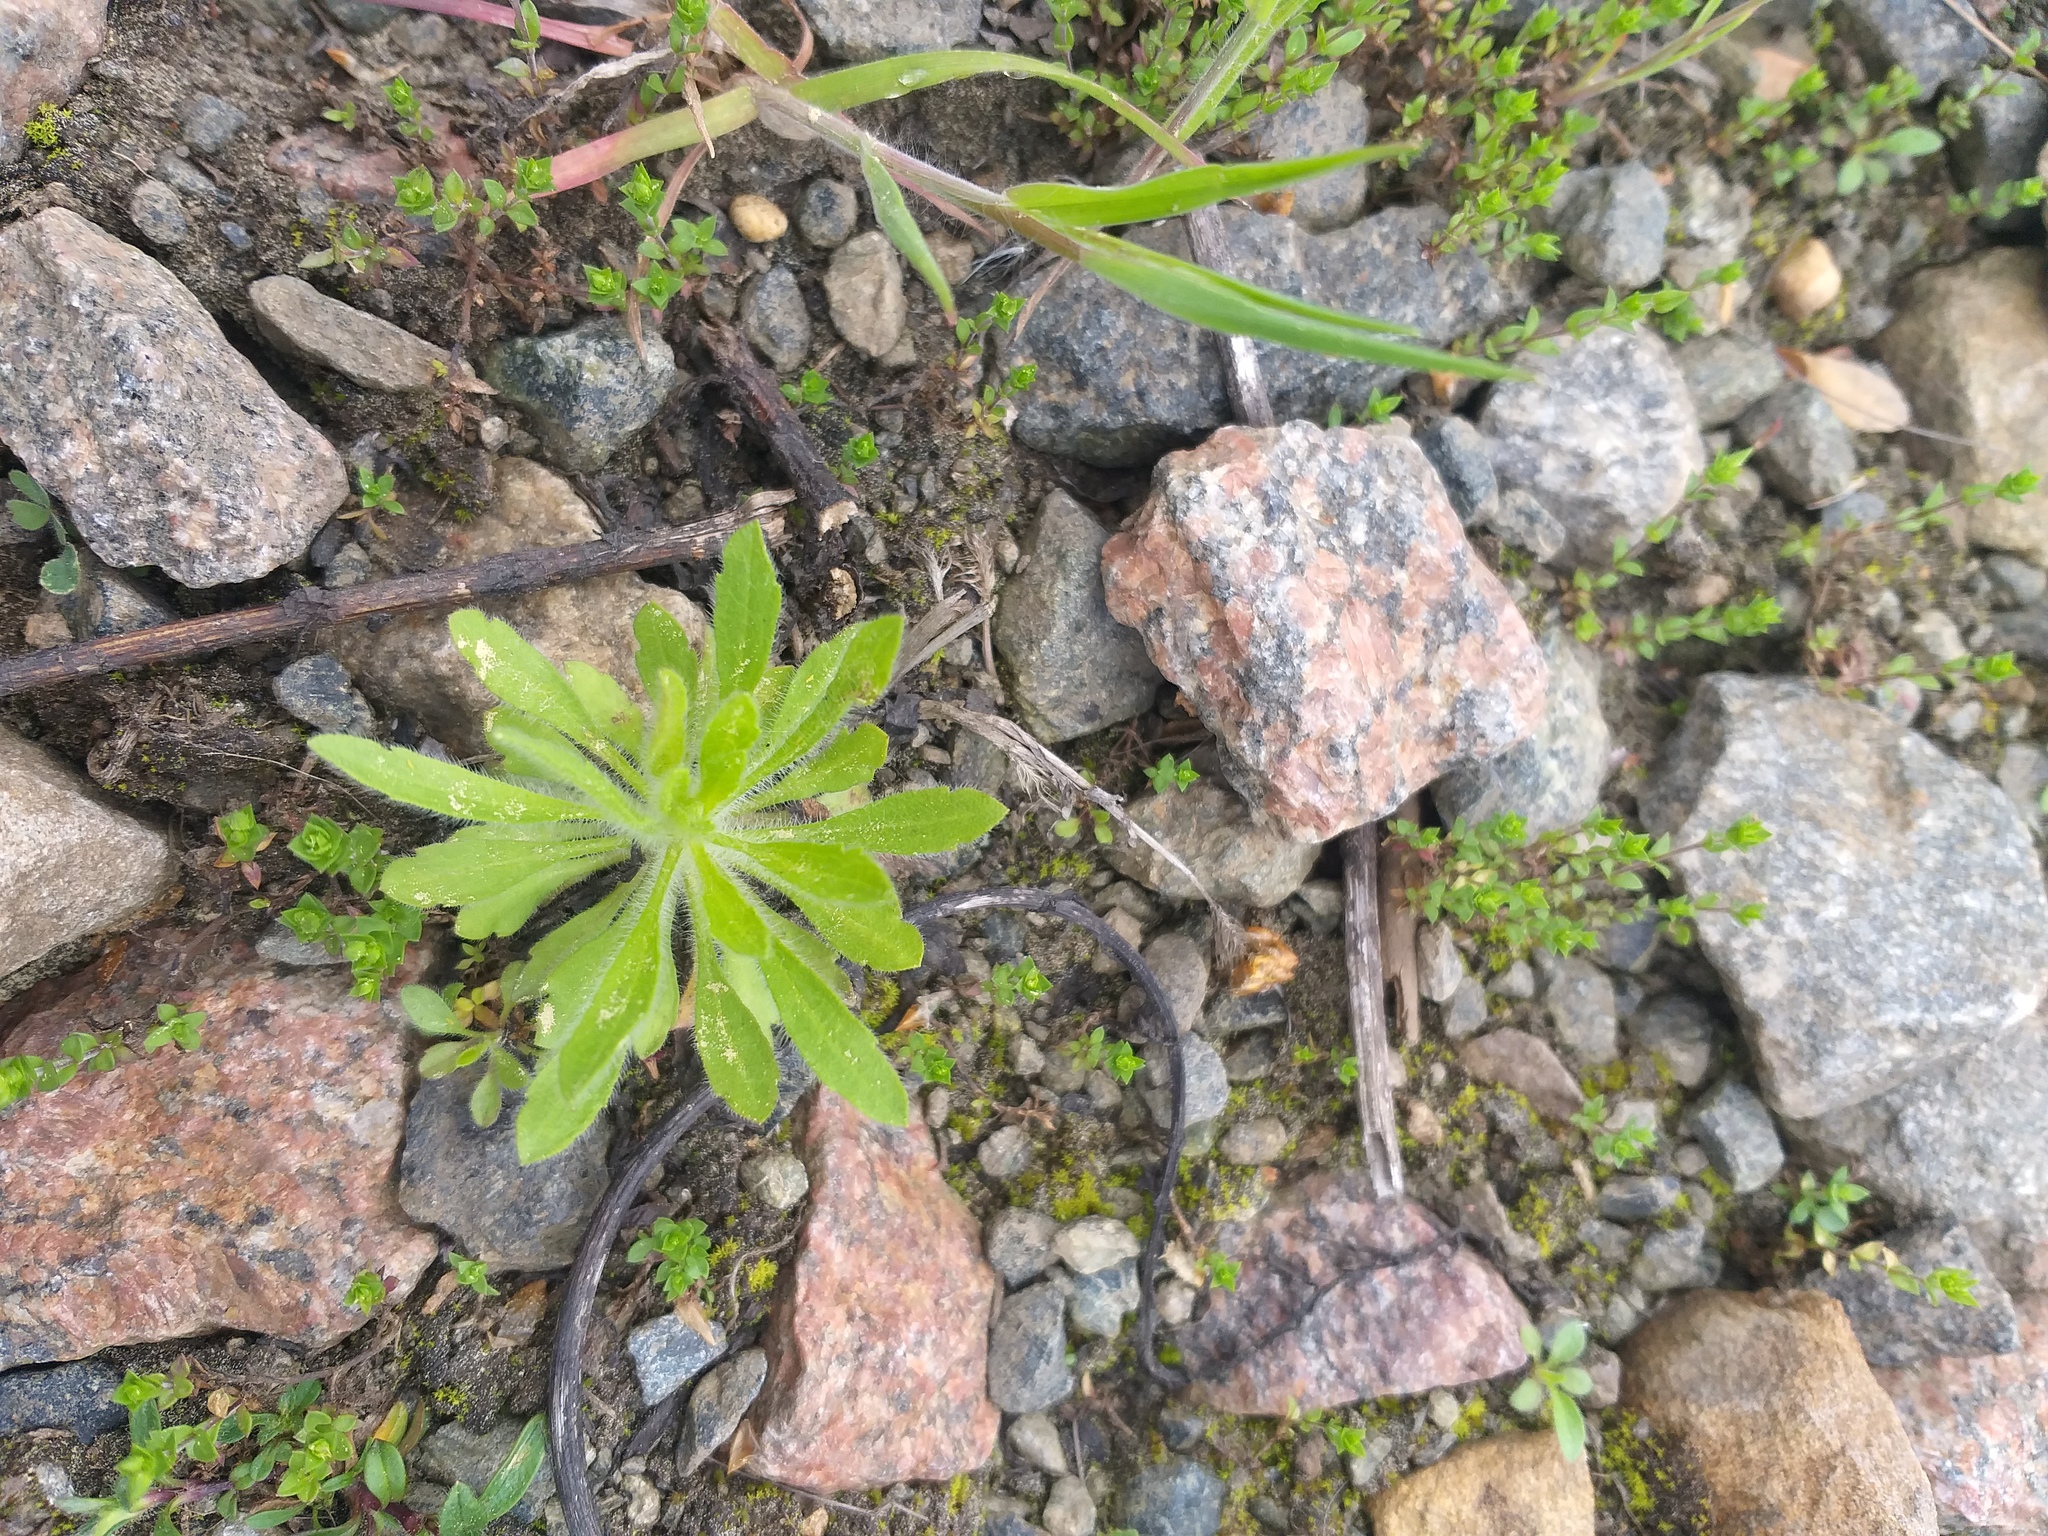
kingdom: Plantae
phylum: Tracheophyta
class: Magnoliopsida
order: Asterales
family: Asteraceae
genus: Erigeron
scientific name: Erigeron canadensis
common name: Canadian fleabane
